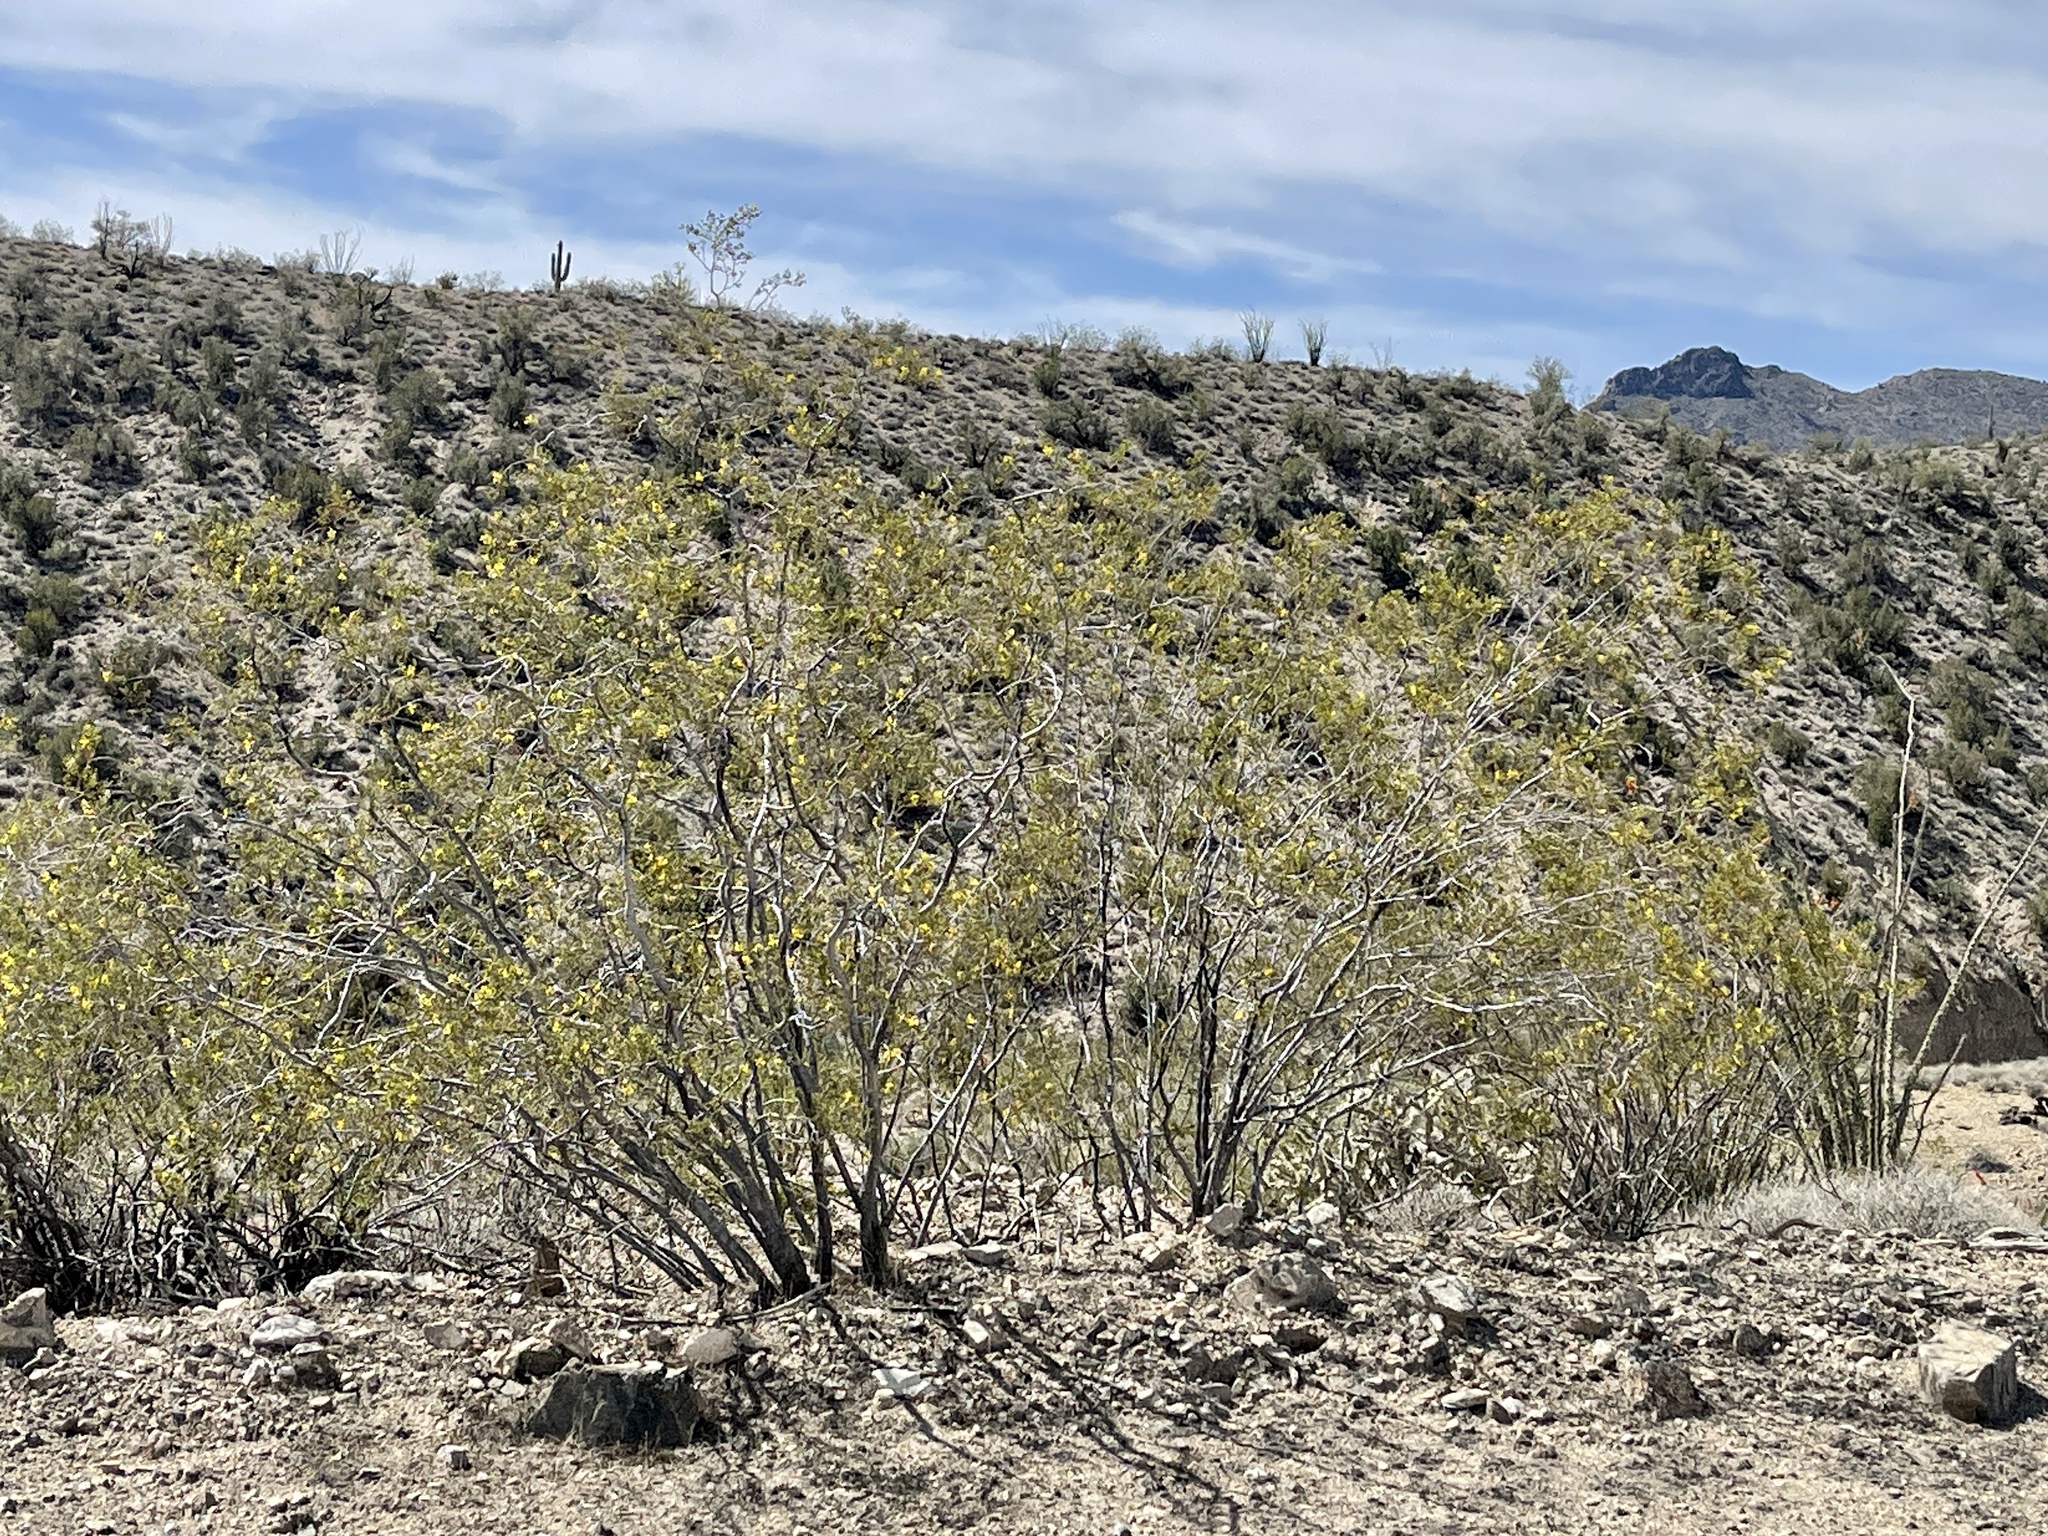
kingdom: Plantae
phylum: Tracheophyta
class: Magnoliopsida
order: Zygophyllales
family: Zygophyllaceae
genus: Larrea
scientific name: Larrea tridentata
